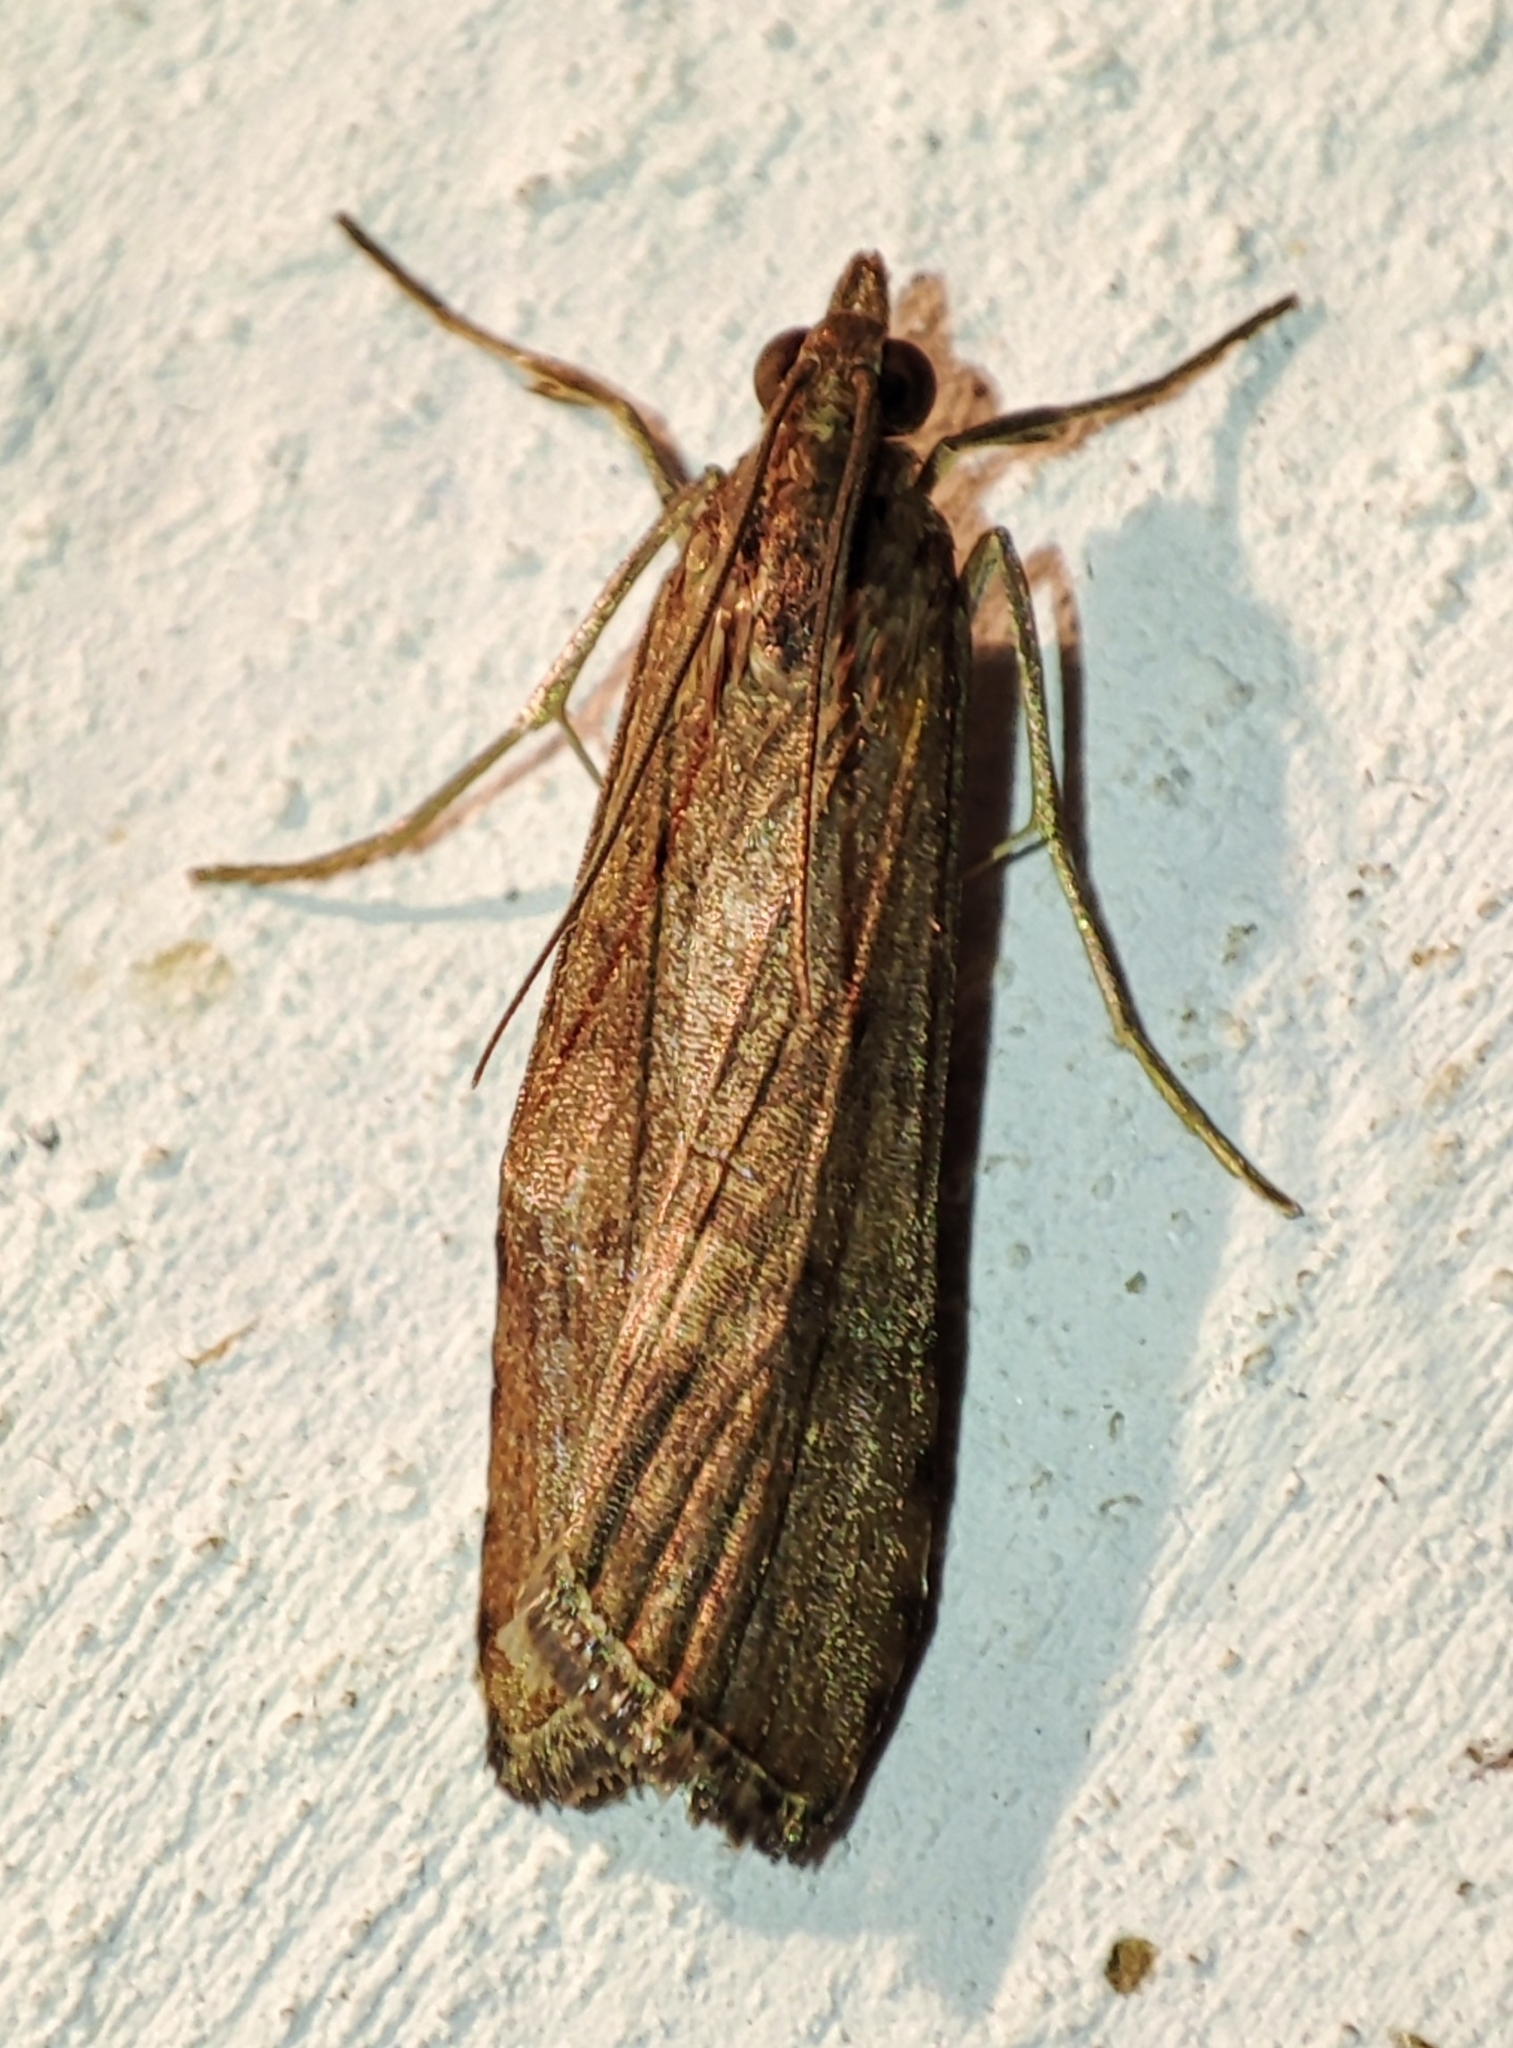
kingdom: Animalia
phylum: Arthropoda
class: Insecta
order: Lepidoptera
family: Crambidae
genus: Nomophila
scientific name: Nomophila noctuella
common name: Rush veneer
